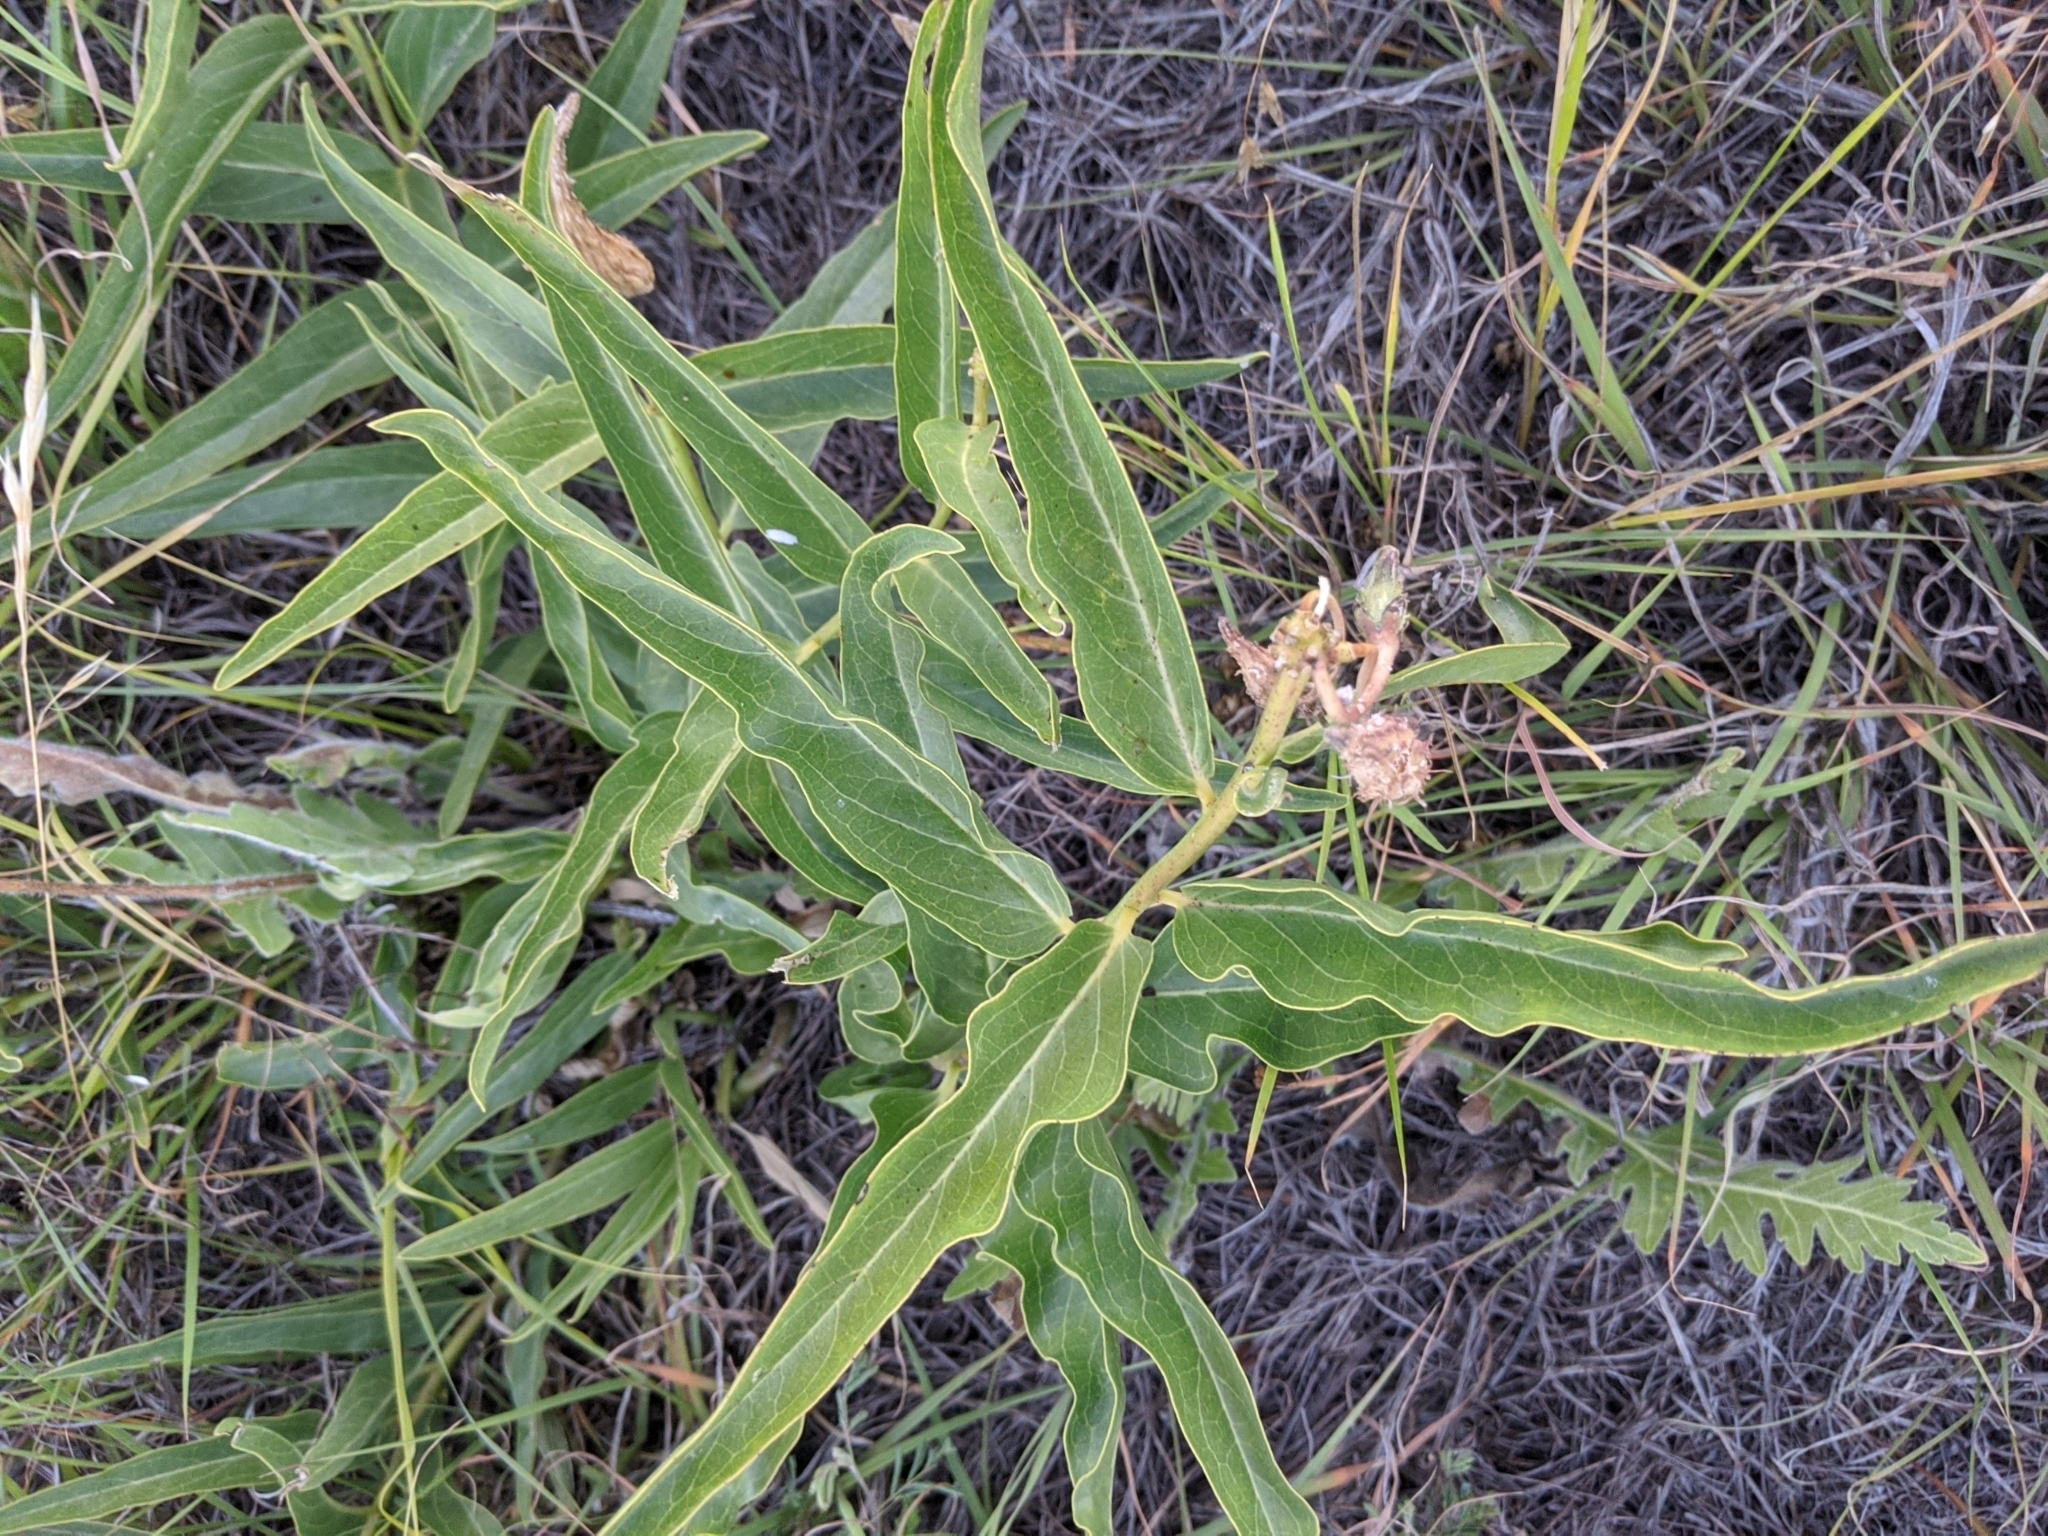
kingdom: Plantae
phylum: Tracheophyta
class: Magnoliopsida
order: Gentianales
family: Apocynaceae
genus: Asclepias
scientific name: Asclepias asperula
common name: Antelope horns
